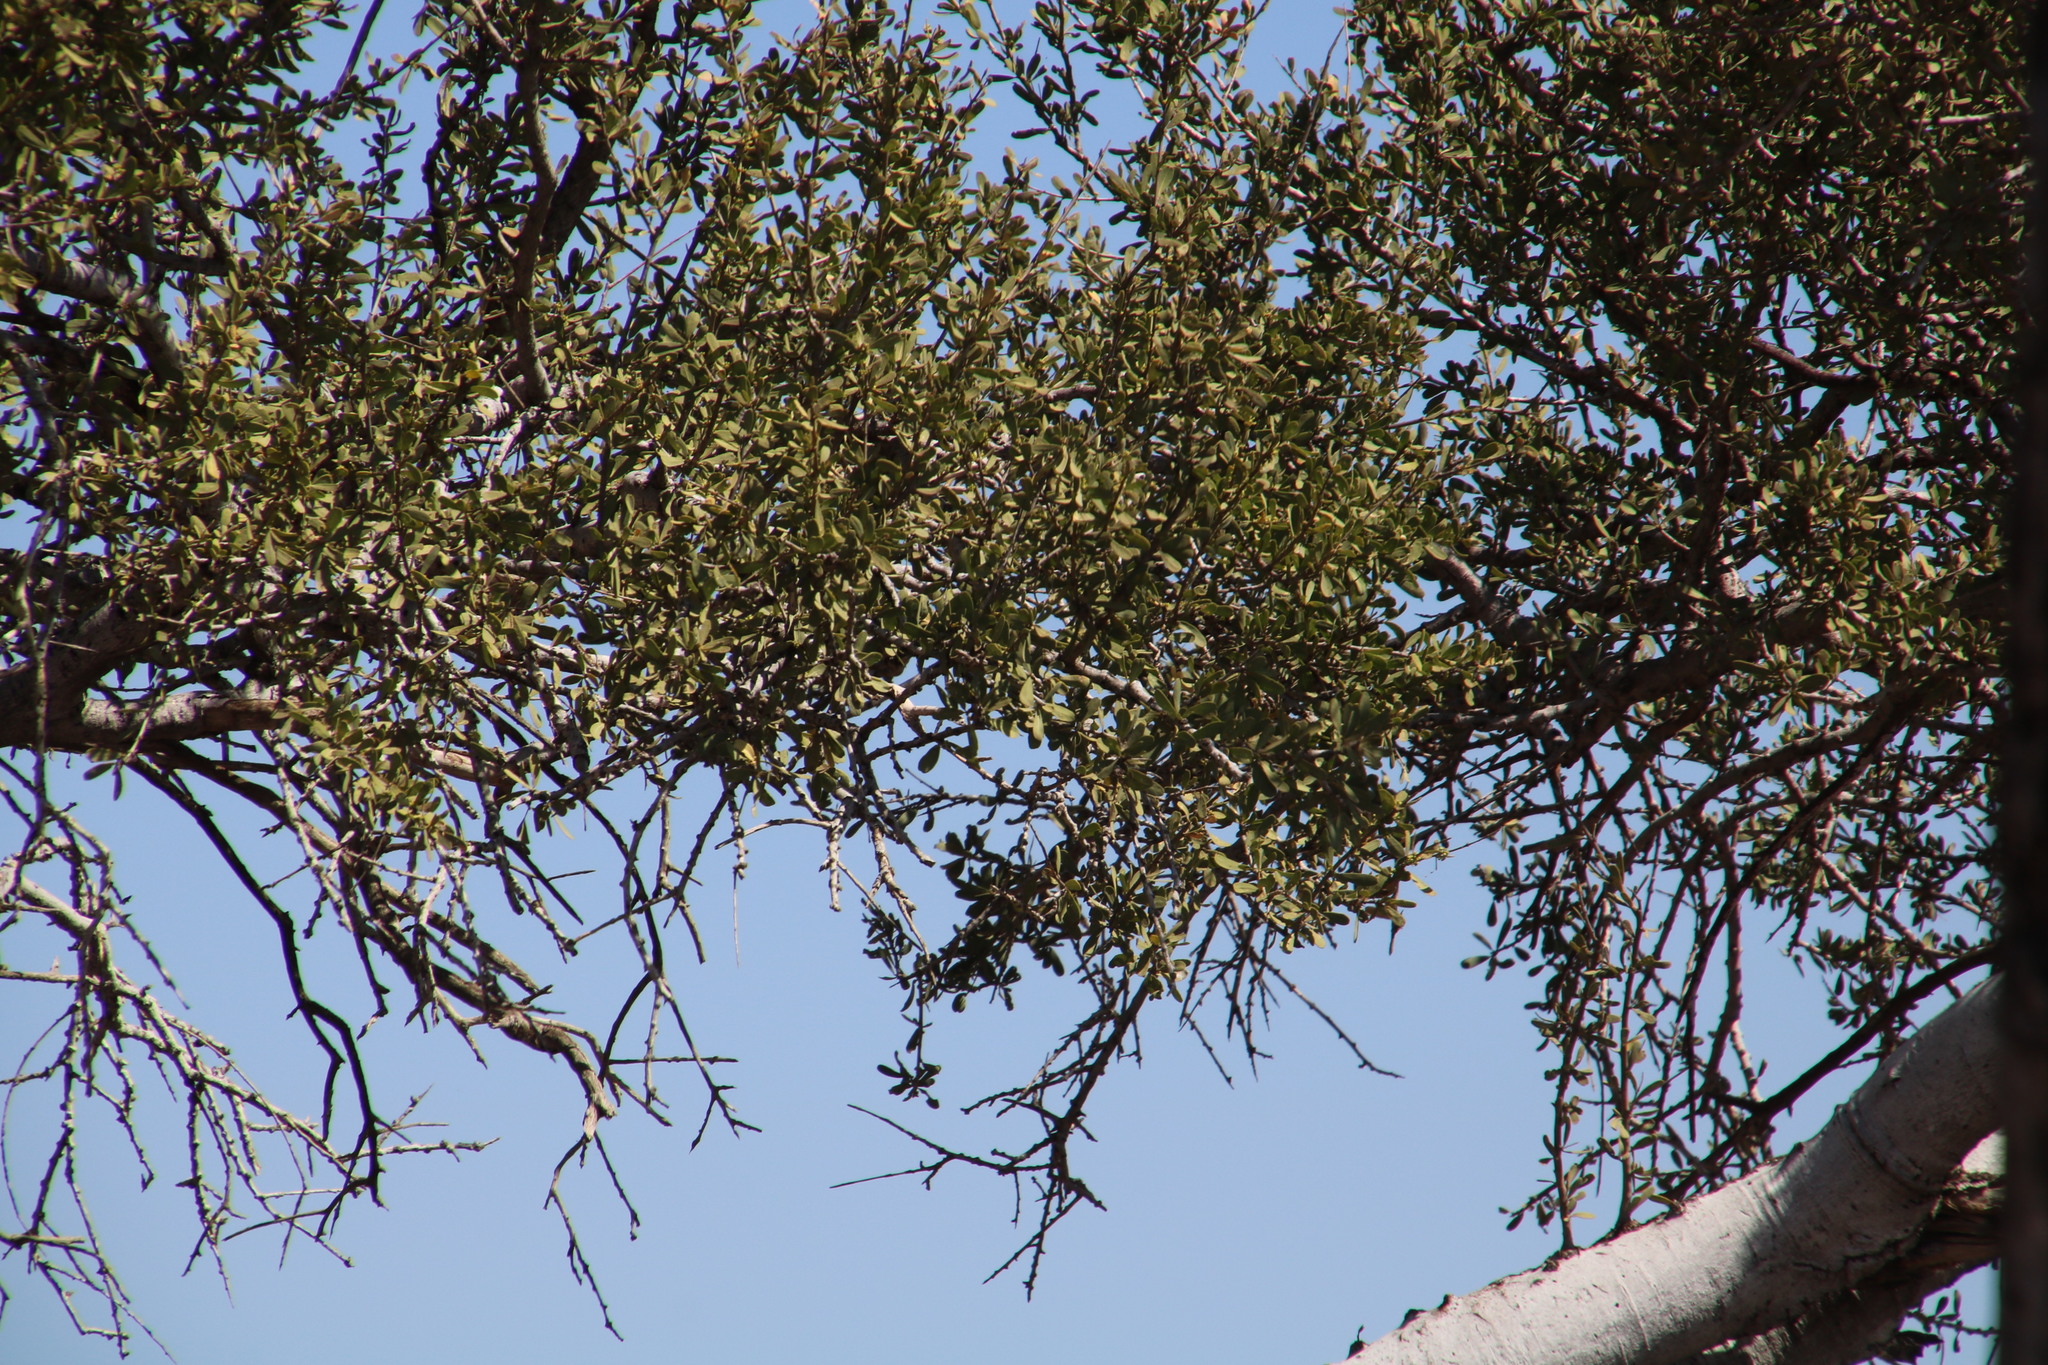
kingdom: Plantae
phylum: Tracheophyta
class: Magnoliopsida
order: Brassicales
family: Capparaceae
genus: Boscia
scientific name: Boscia albitrunca
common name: Caper bush
